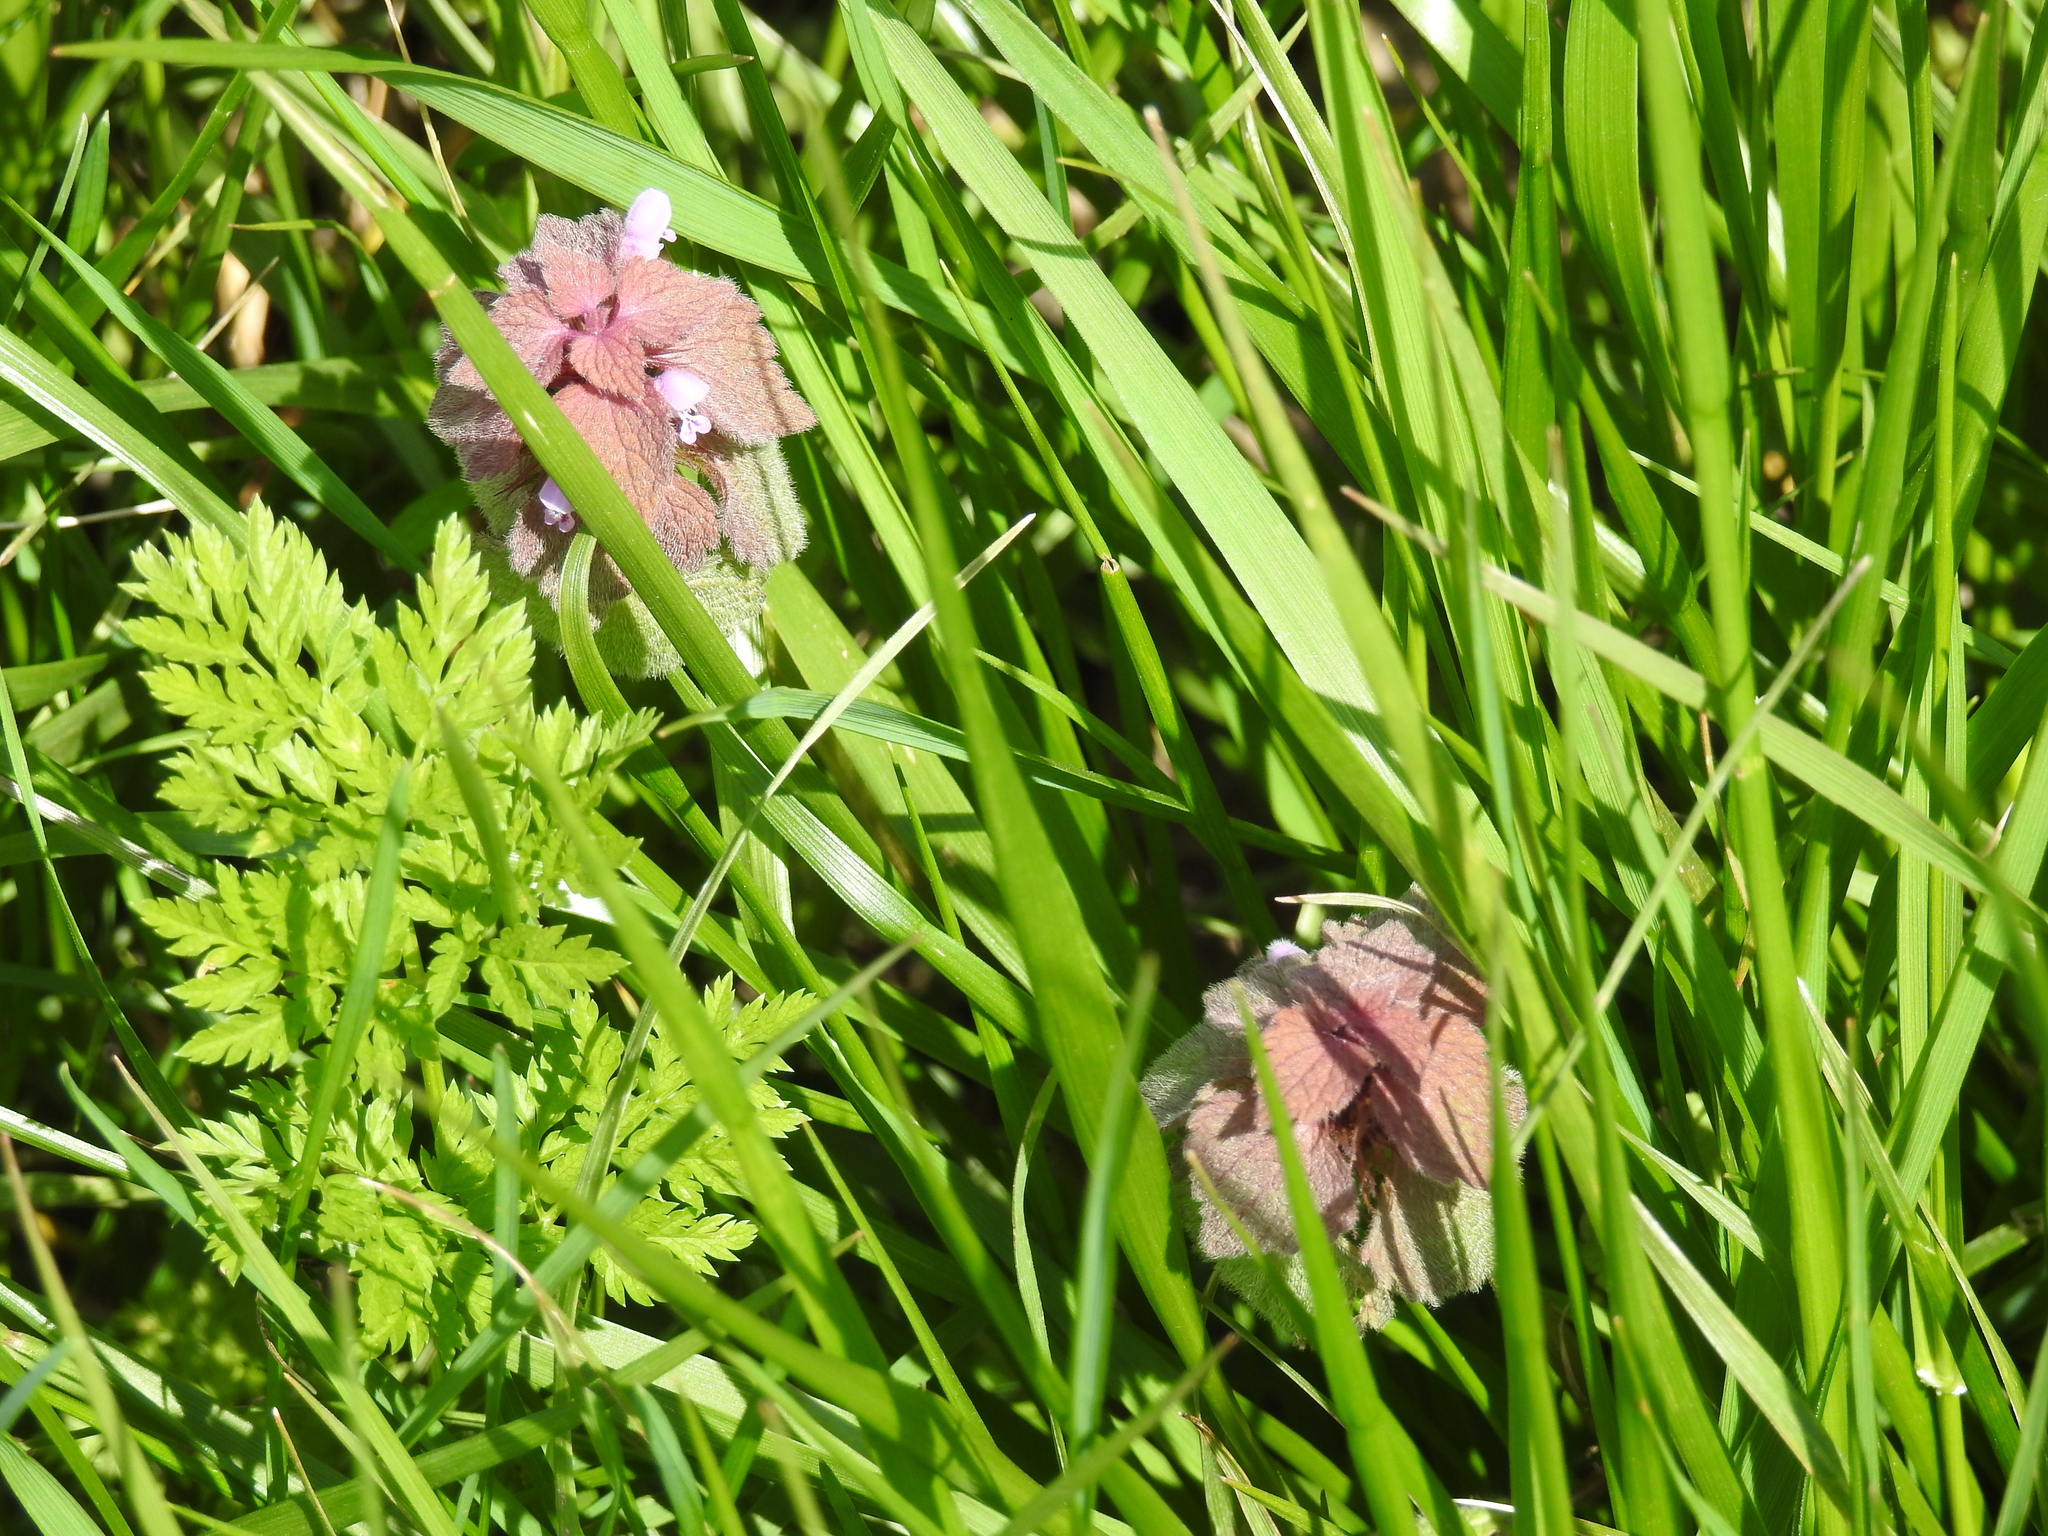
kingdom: Plantae
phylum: Tracheophyta
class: Magnoliopsida
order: Lamiales
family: Lamiaceae
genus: Lamium
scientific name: Lamium purpureum
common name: Red dead-nettle
